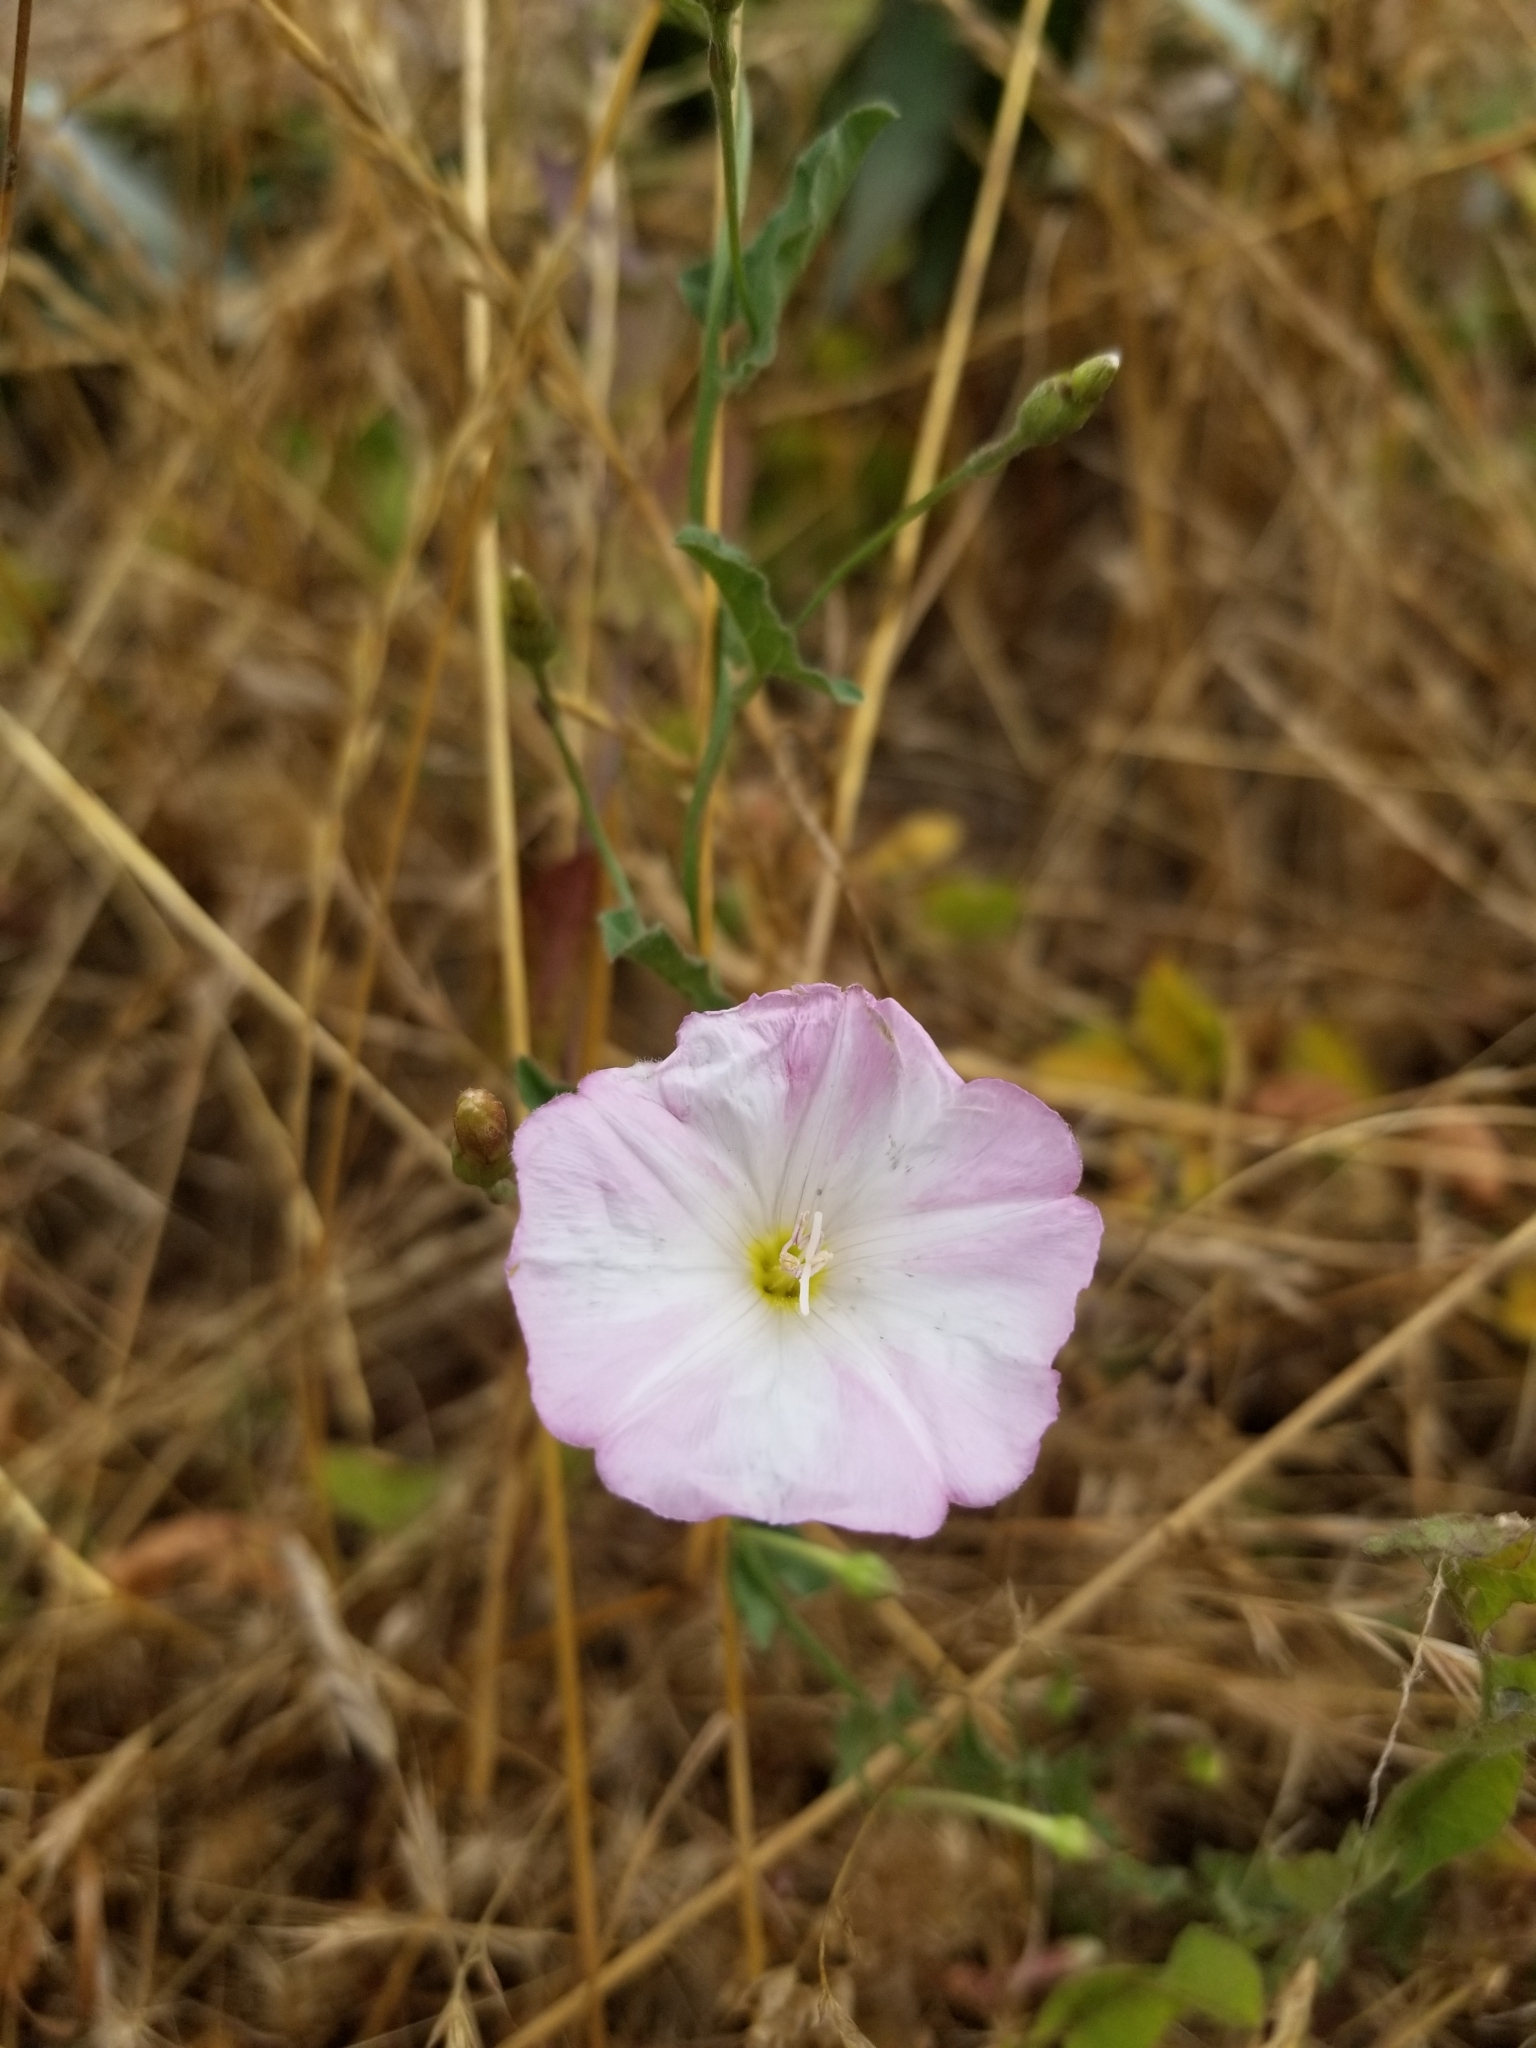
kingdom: Plantae
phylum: Tracheophyta
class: Magnoliopsida
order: Solanales
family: Convolvulaceae
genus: Convolvulus
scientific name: Convolvulus arvensis
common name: Field bindweed
